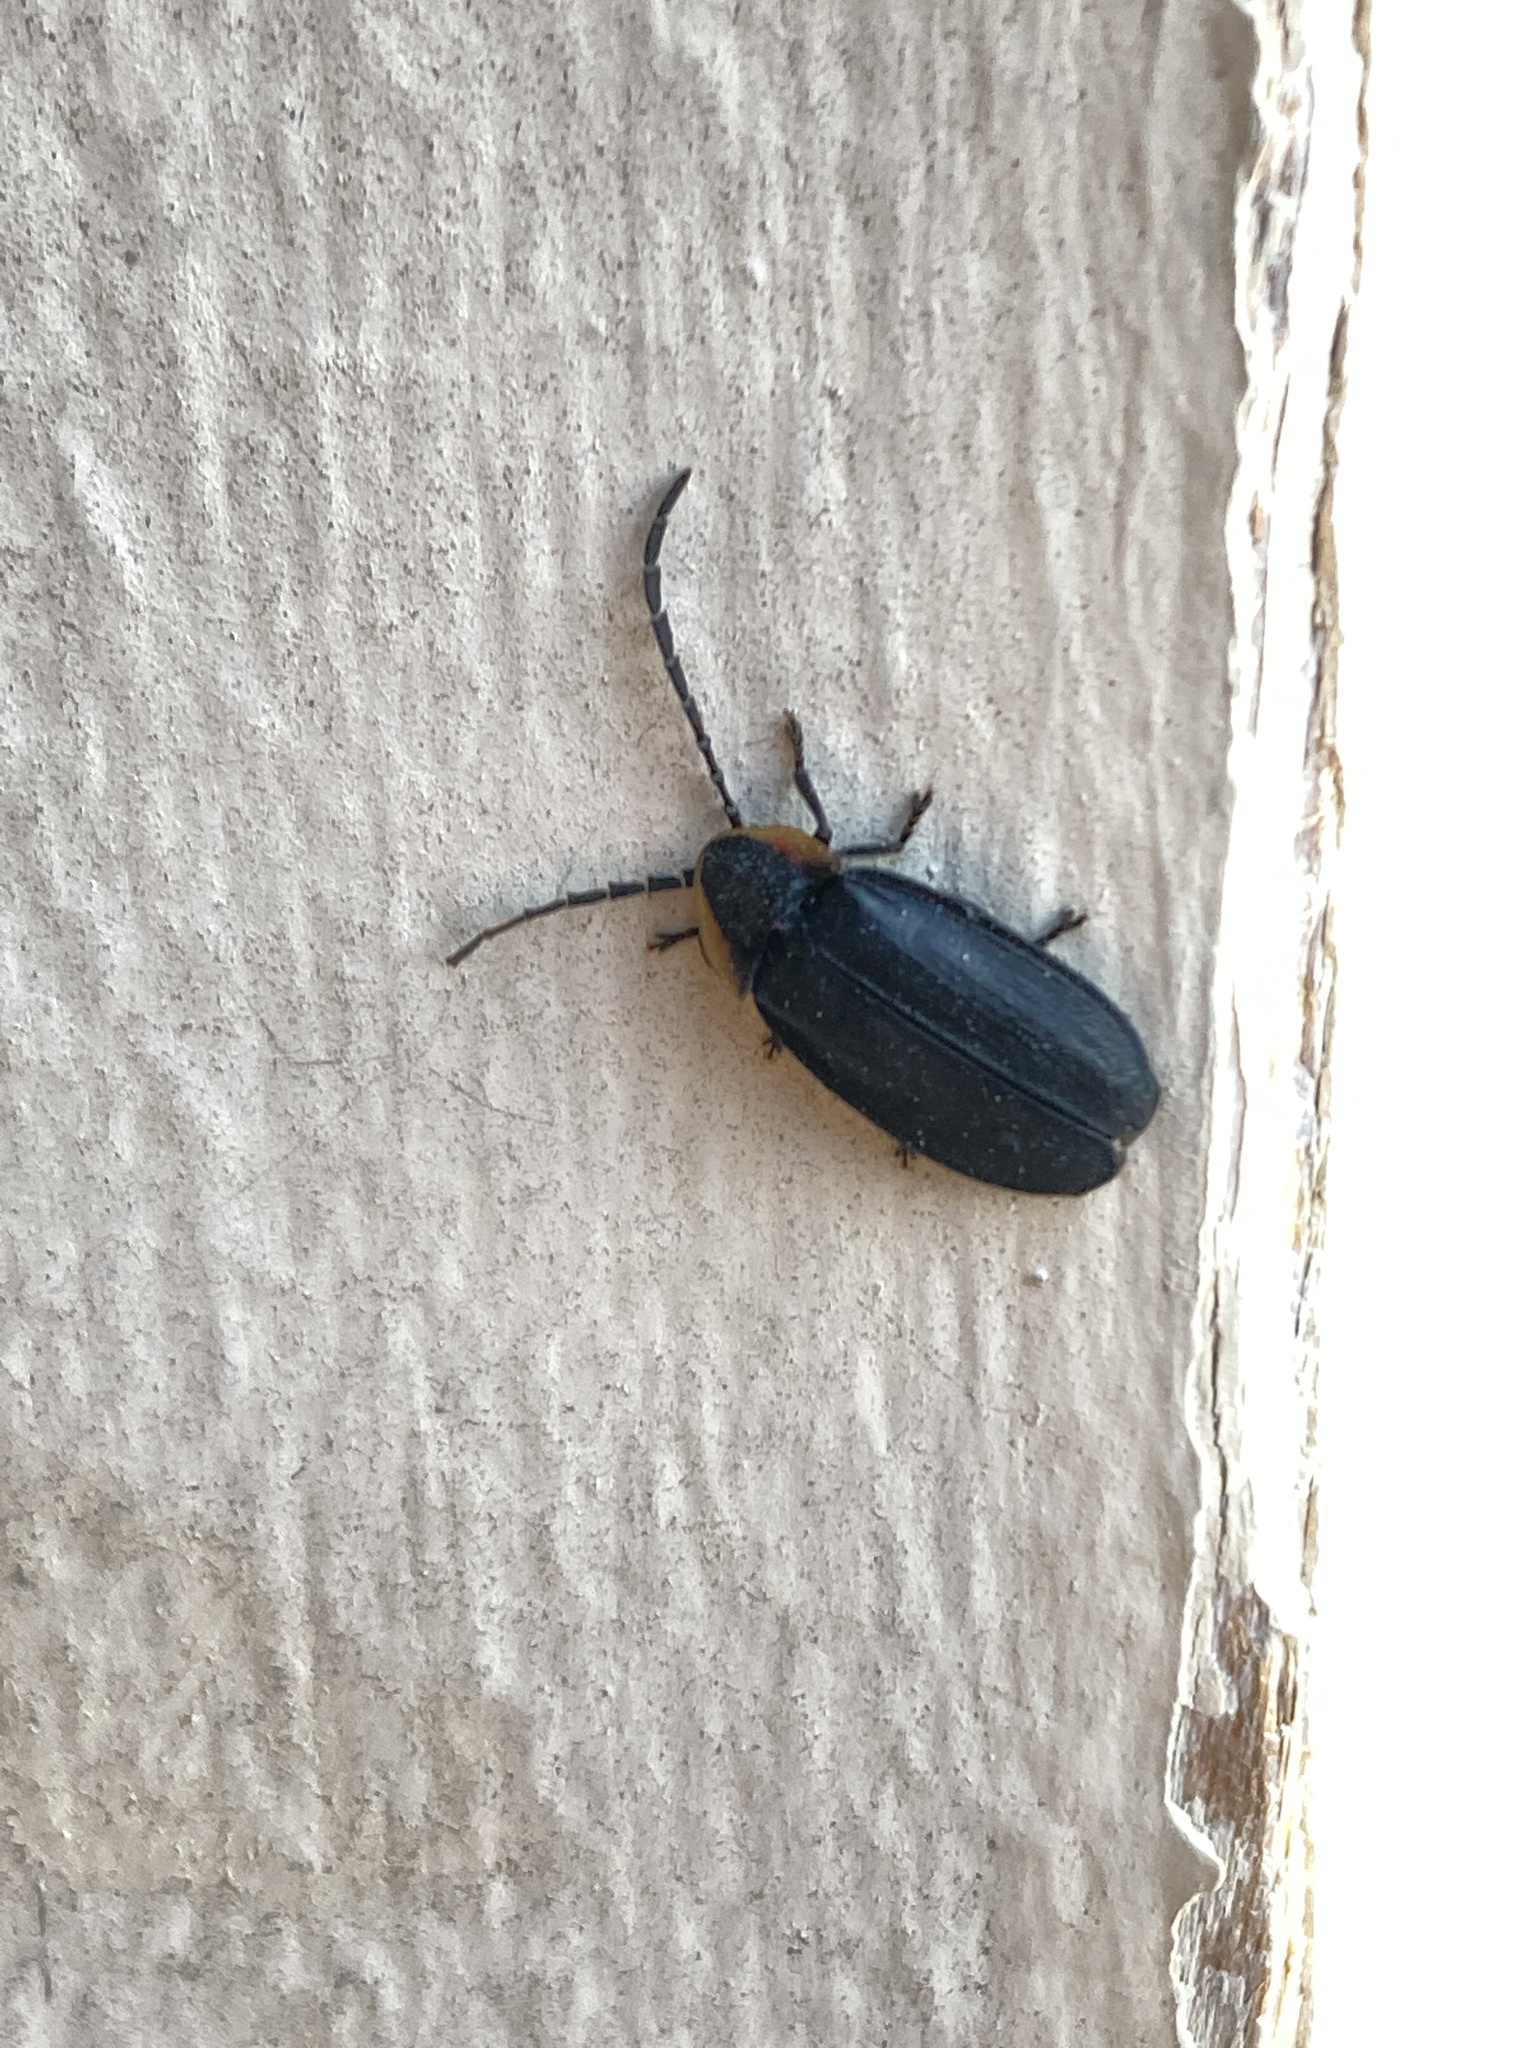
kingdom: Animalia
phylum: Arthropoda
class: Insecta
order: Coleoptera
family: Lampyridae
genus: Lucidota
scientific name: Lucidota atra
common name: Black firefly
